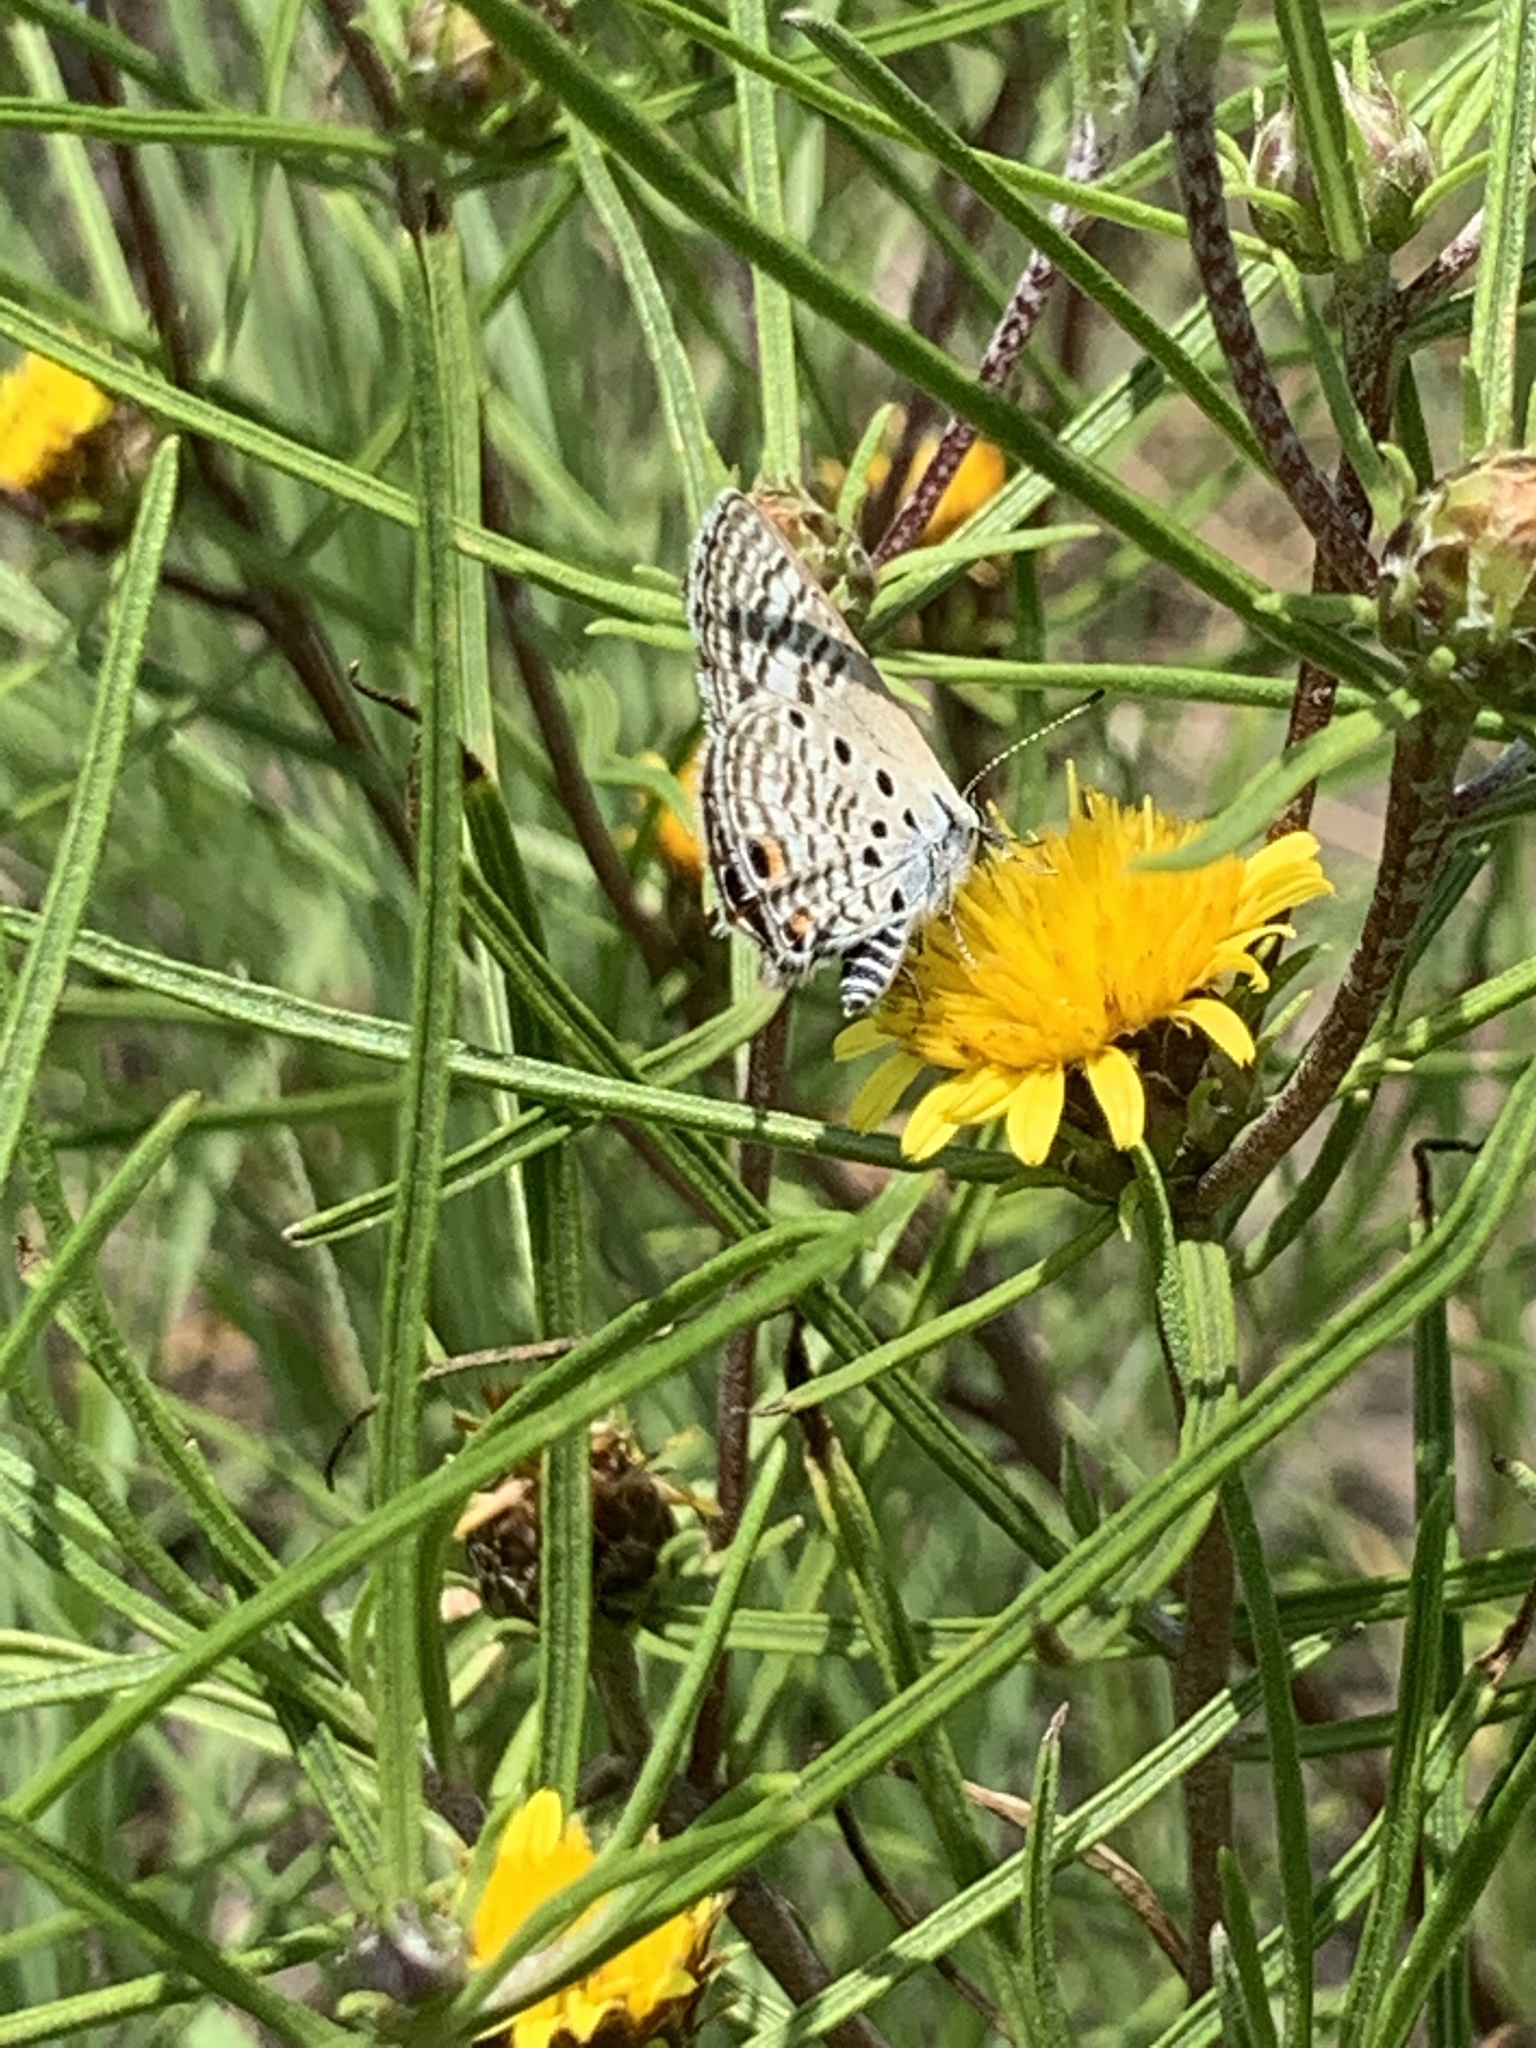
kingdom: Animalia
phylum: Arthropoda
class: Insecta
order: Lepidoptera
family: Lycaenidae
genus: Anthene
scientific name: Anthene amarah
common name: Black-striped hairtail
